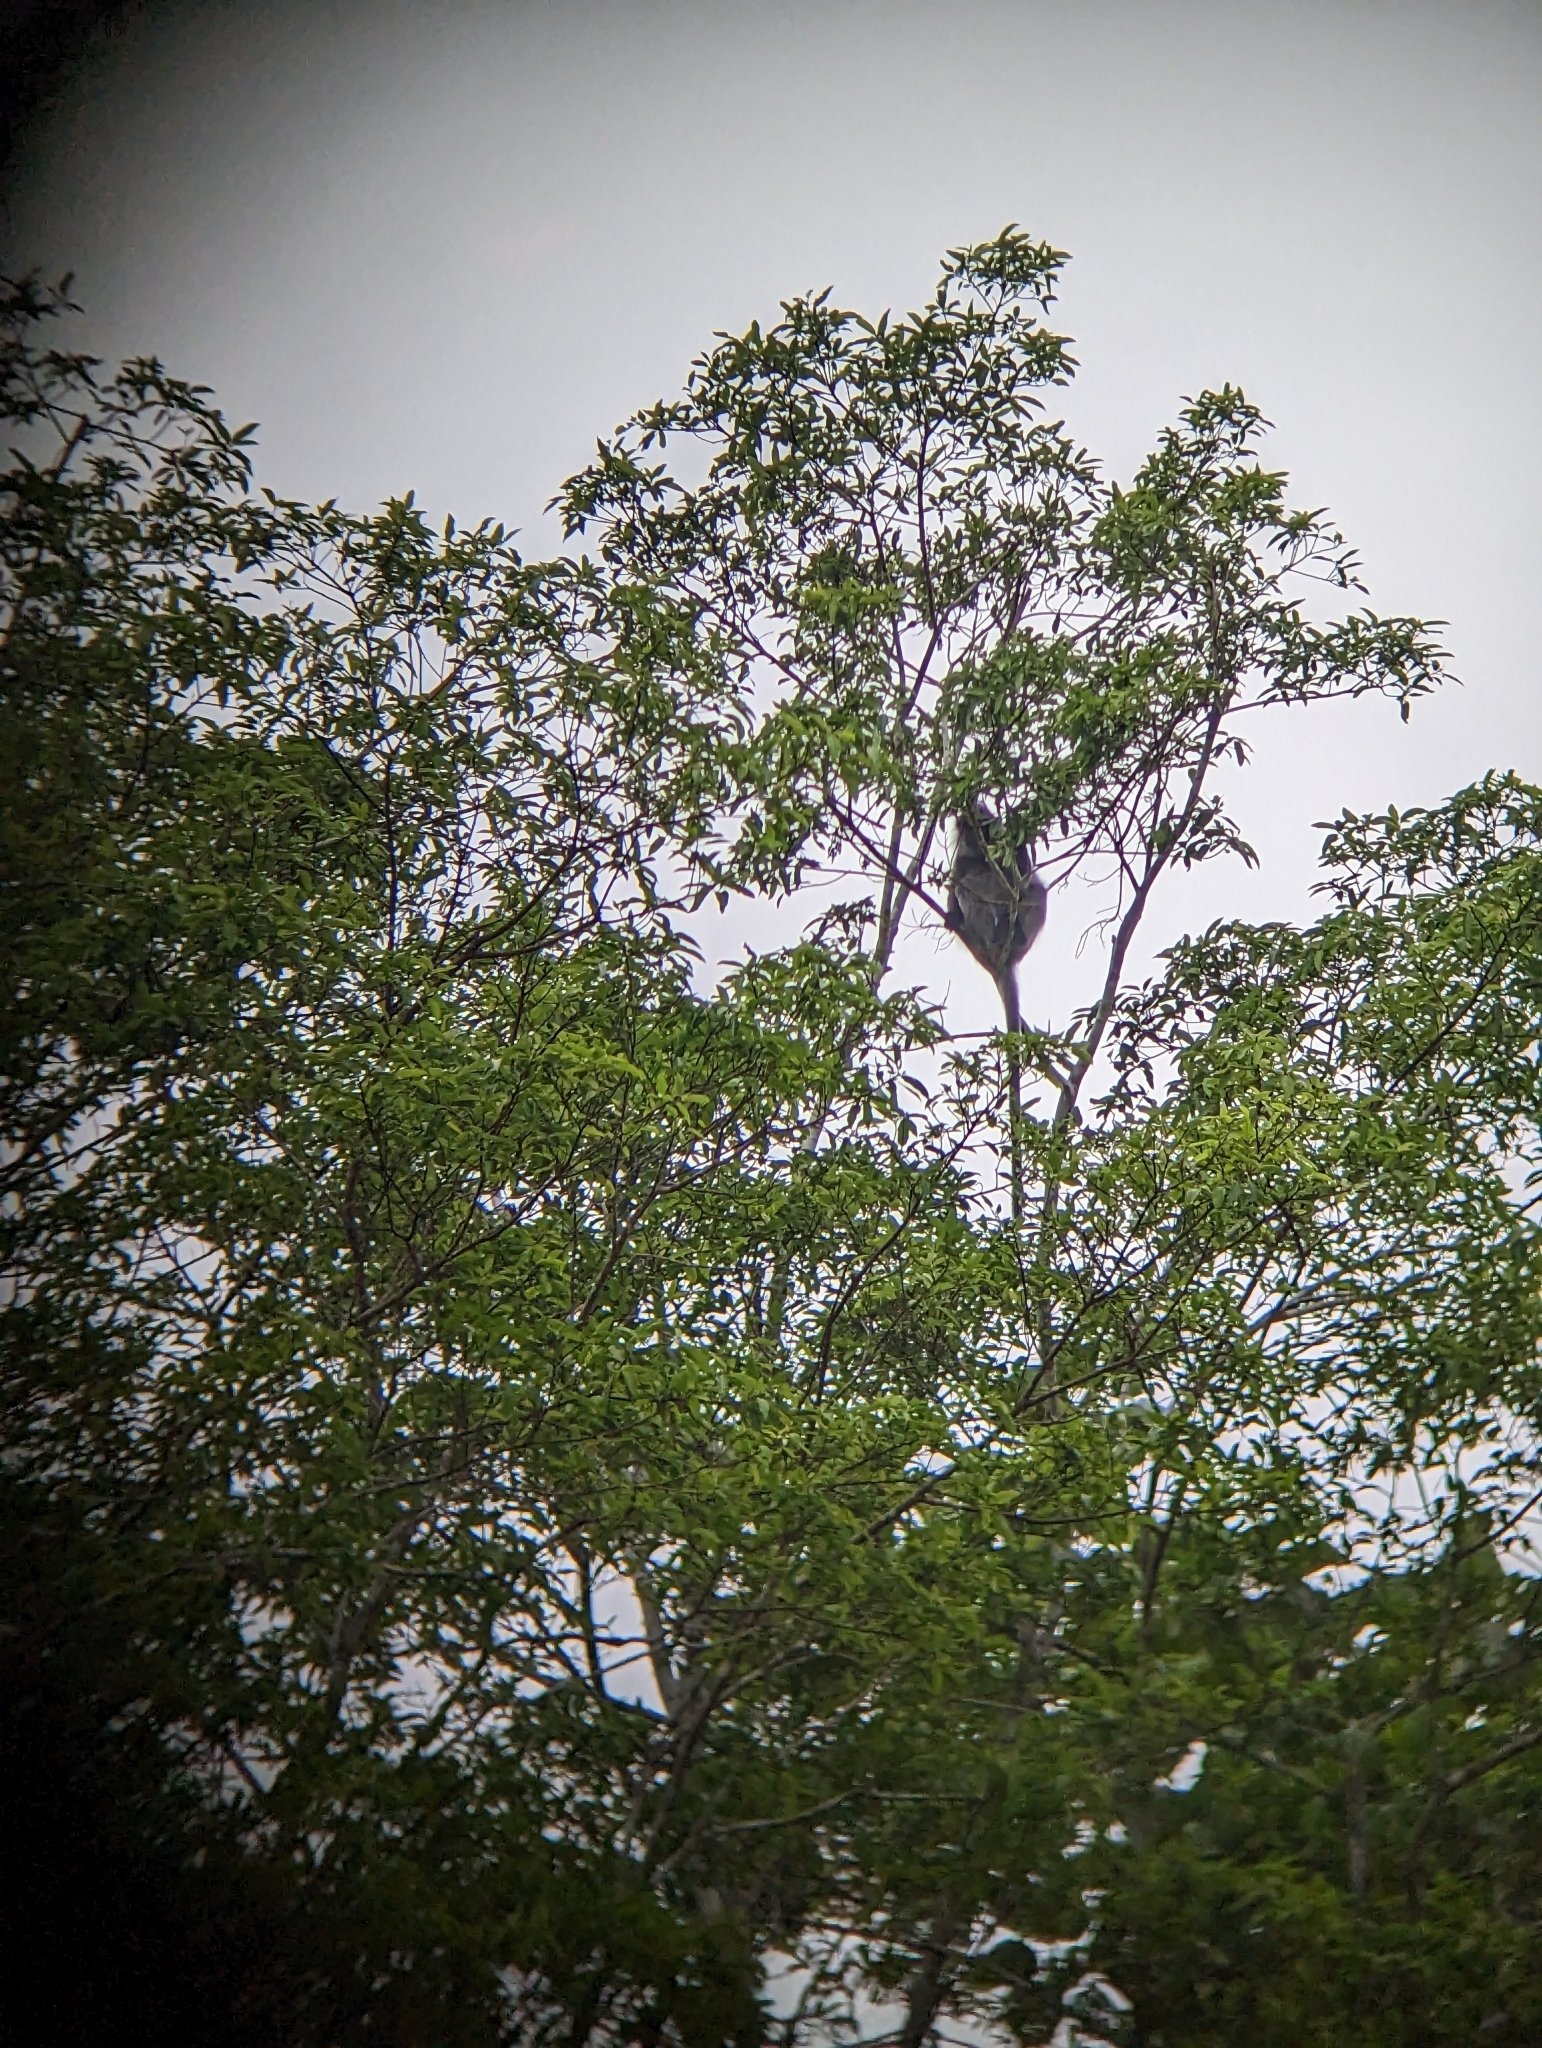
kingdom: Animalia
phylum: Chordata
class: Mammalia
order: Primates
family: Cercopithecidae
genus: Trachypithecus
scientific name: Trachypithecus cristatus
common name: Silvery lutung
